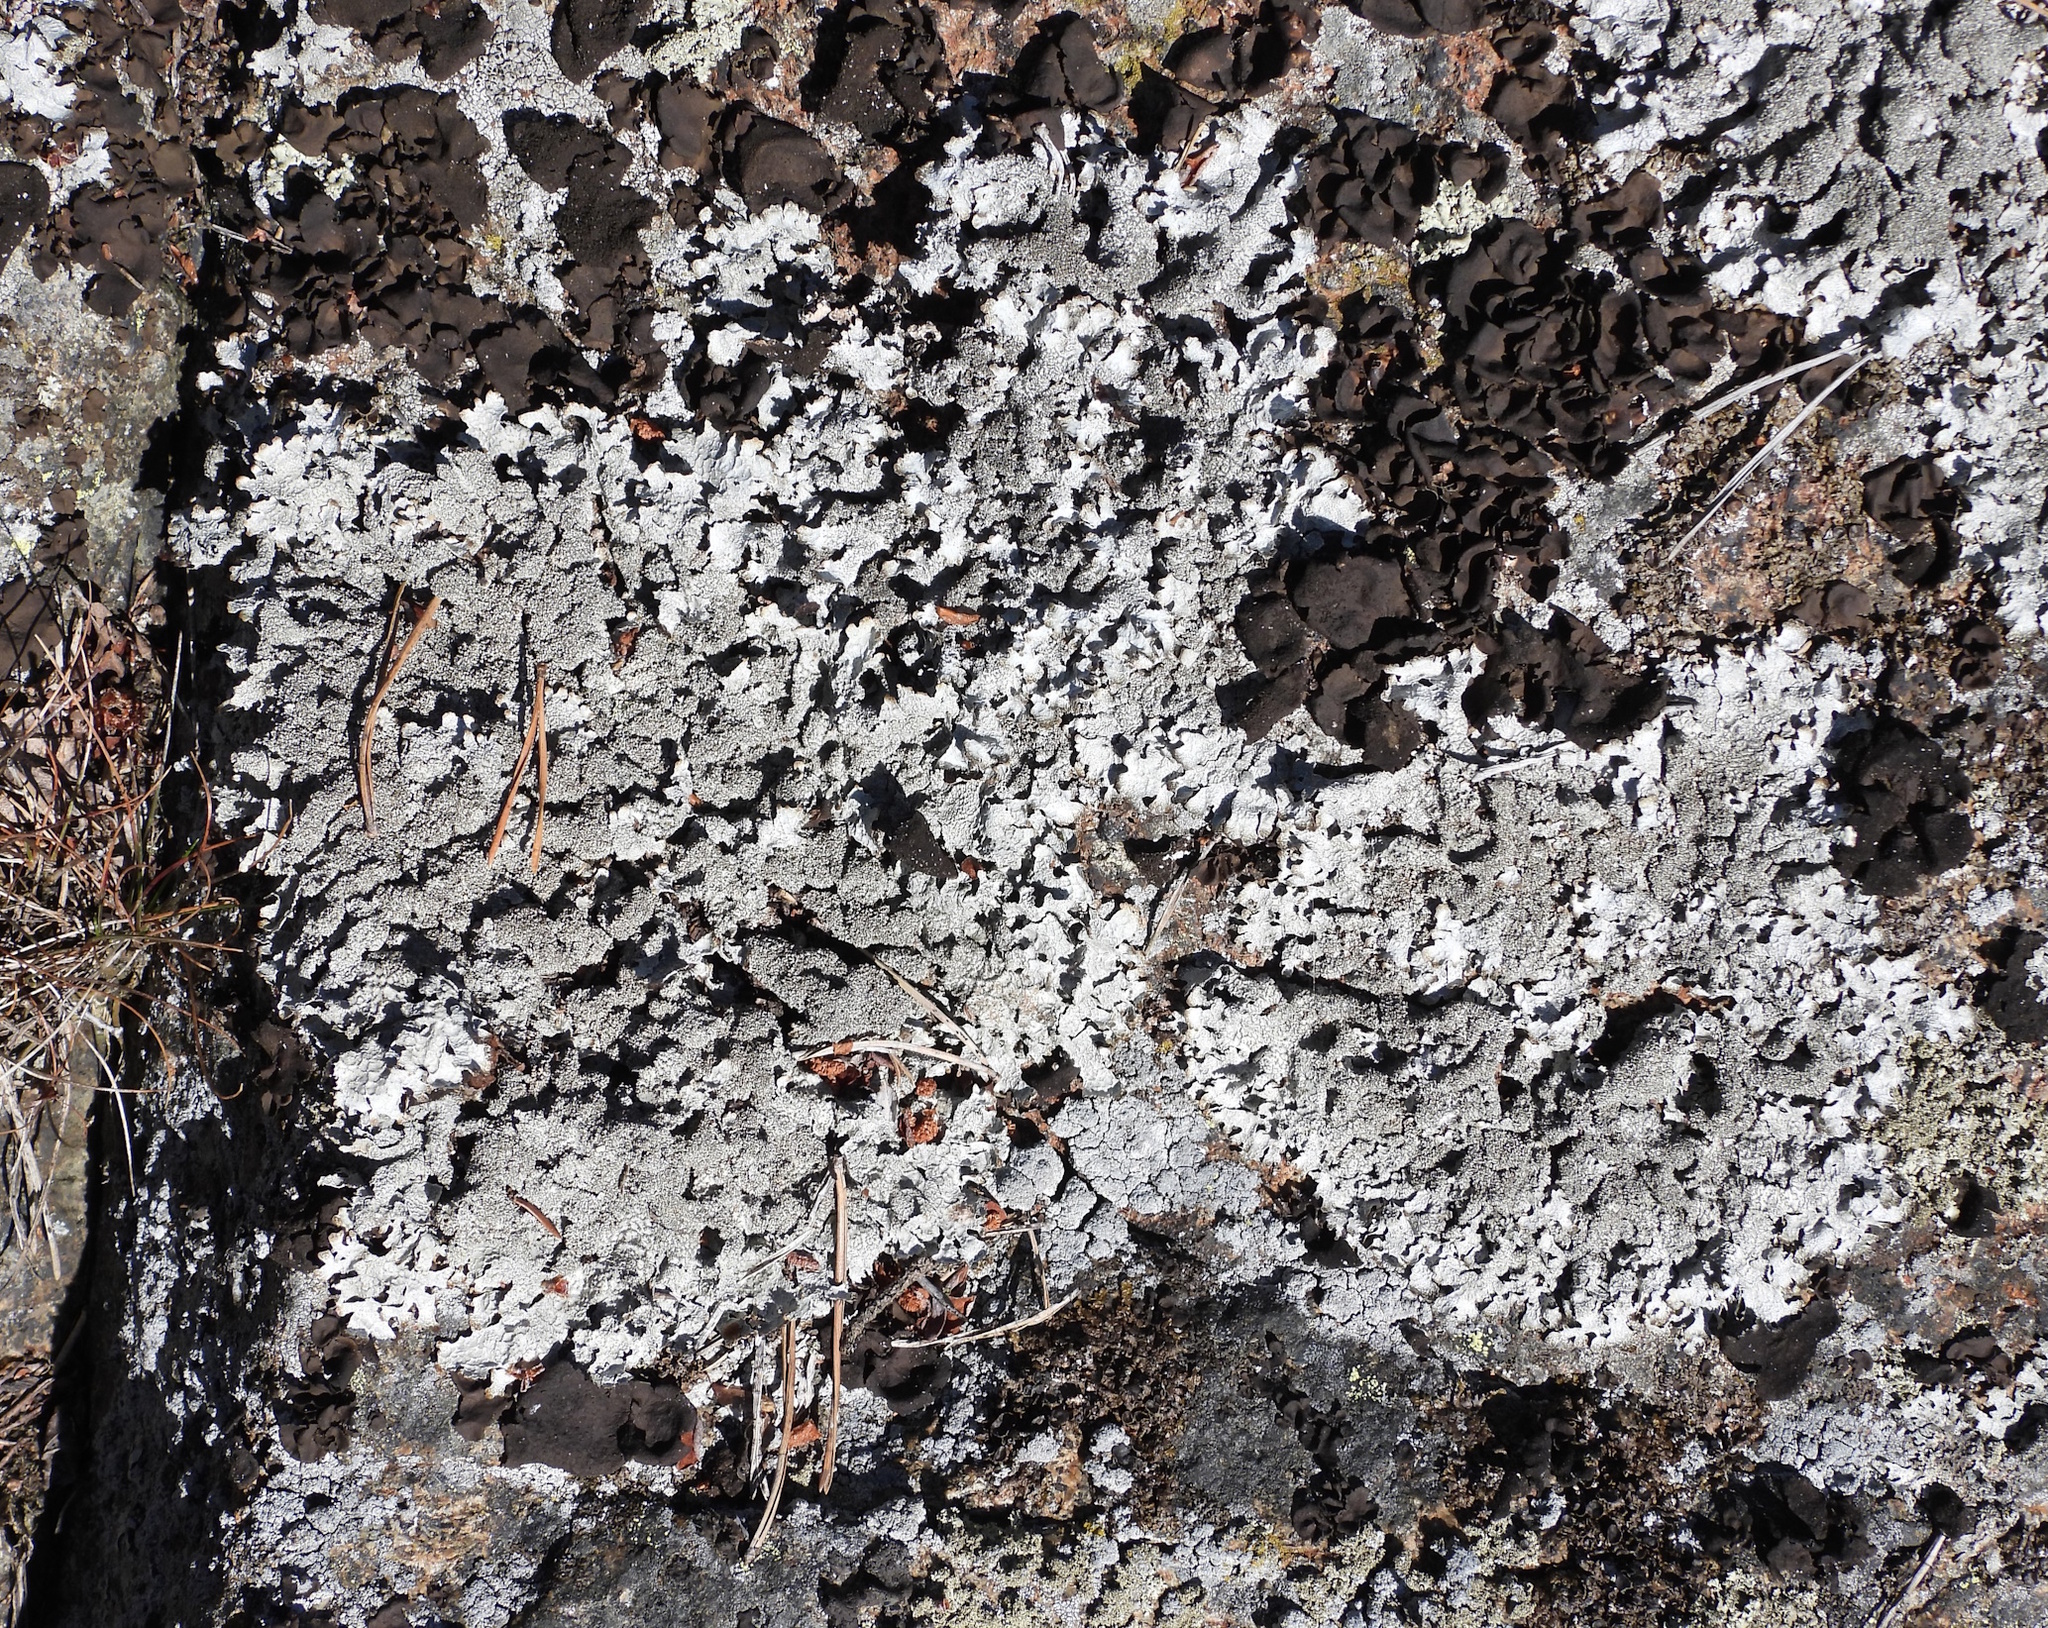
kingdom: Fungi
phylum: Ascomycota
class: Lecanoromycetes
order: Lecanorales
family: Parmeliaceae
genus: Parmelia
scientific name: Parmelia saxatilis
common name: Salted shield lichen
